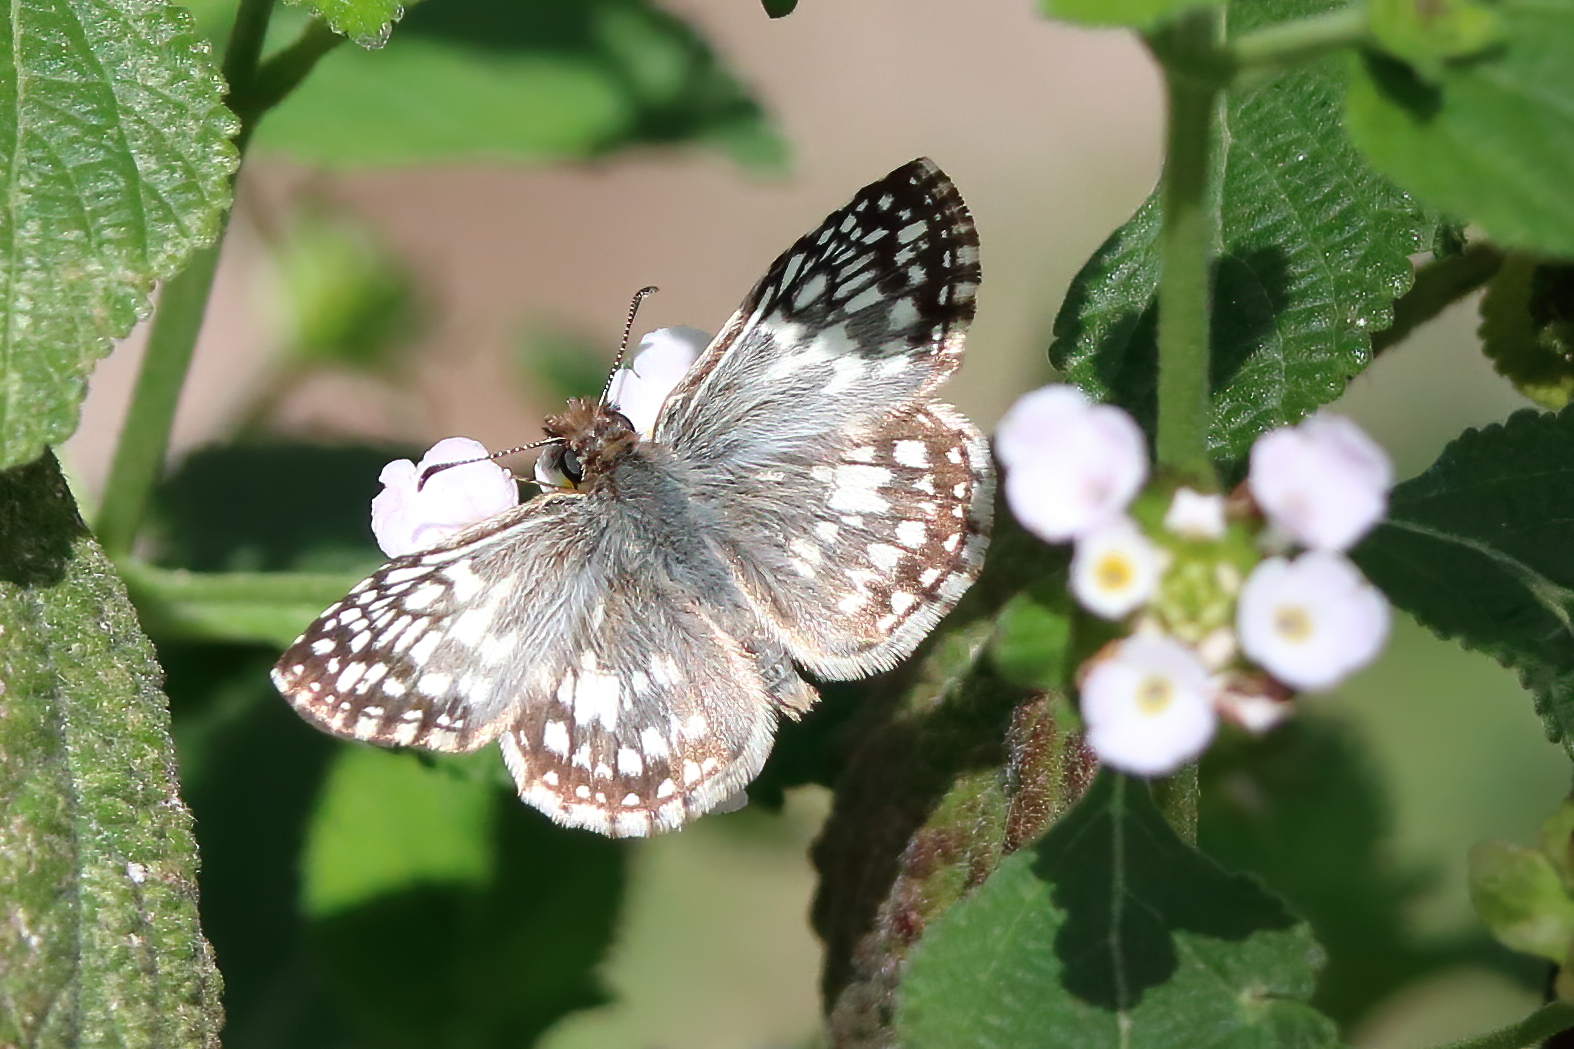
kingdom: Animalia
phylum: Arthropoda
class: Insecta
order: Lepidoptera
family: Hesperiidae
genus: Pyrgus
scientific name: Pyrgus oileus
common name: Tropical checkered-skipper
